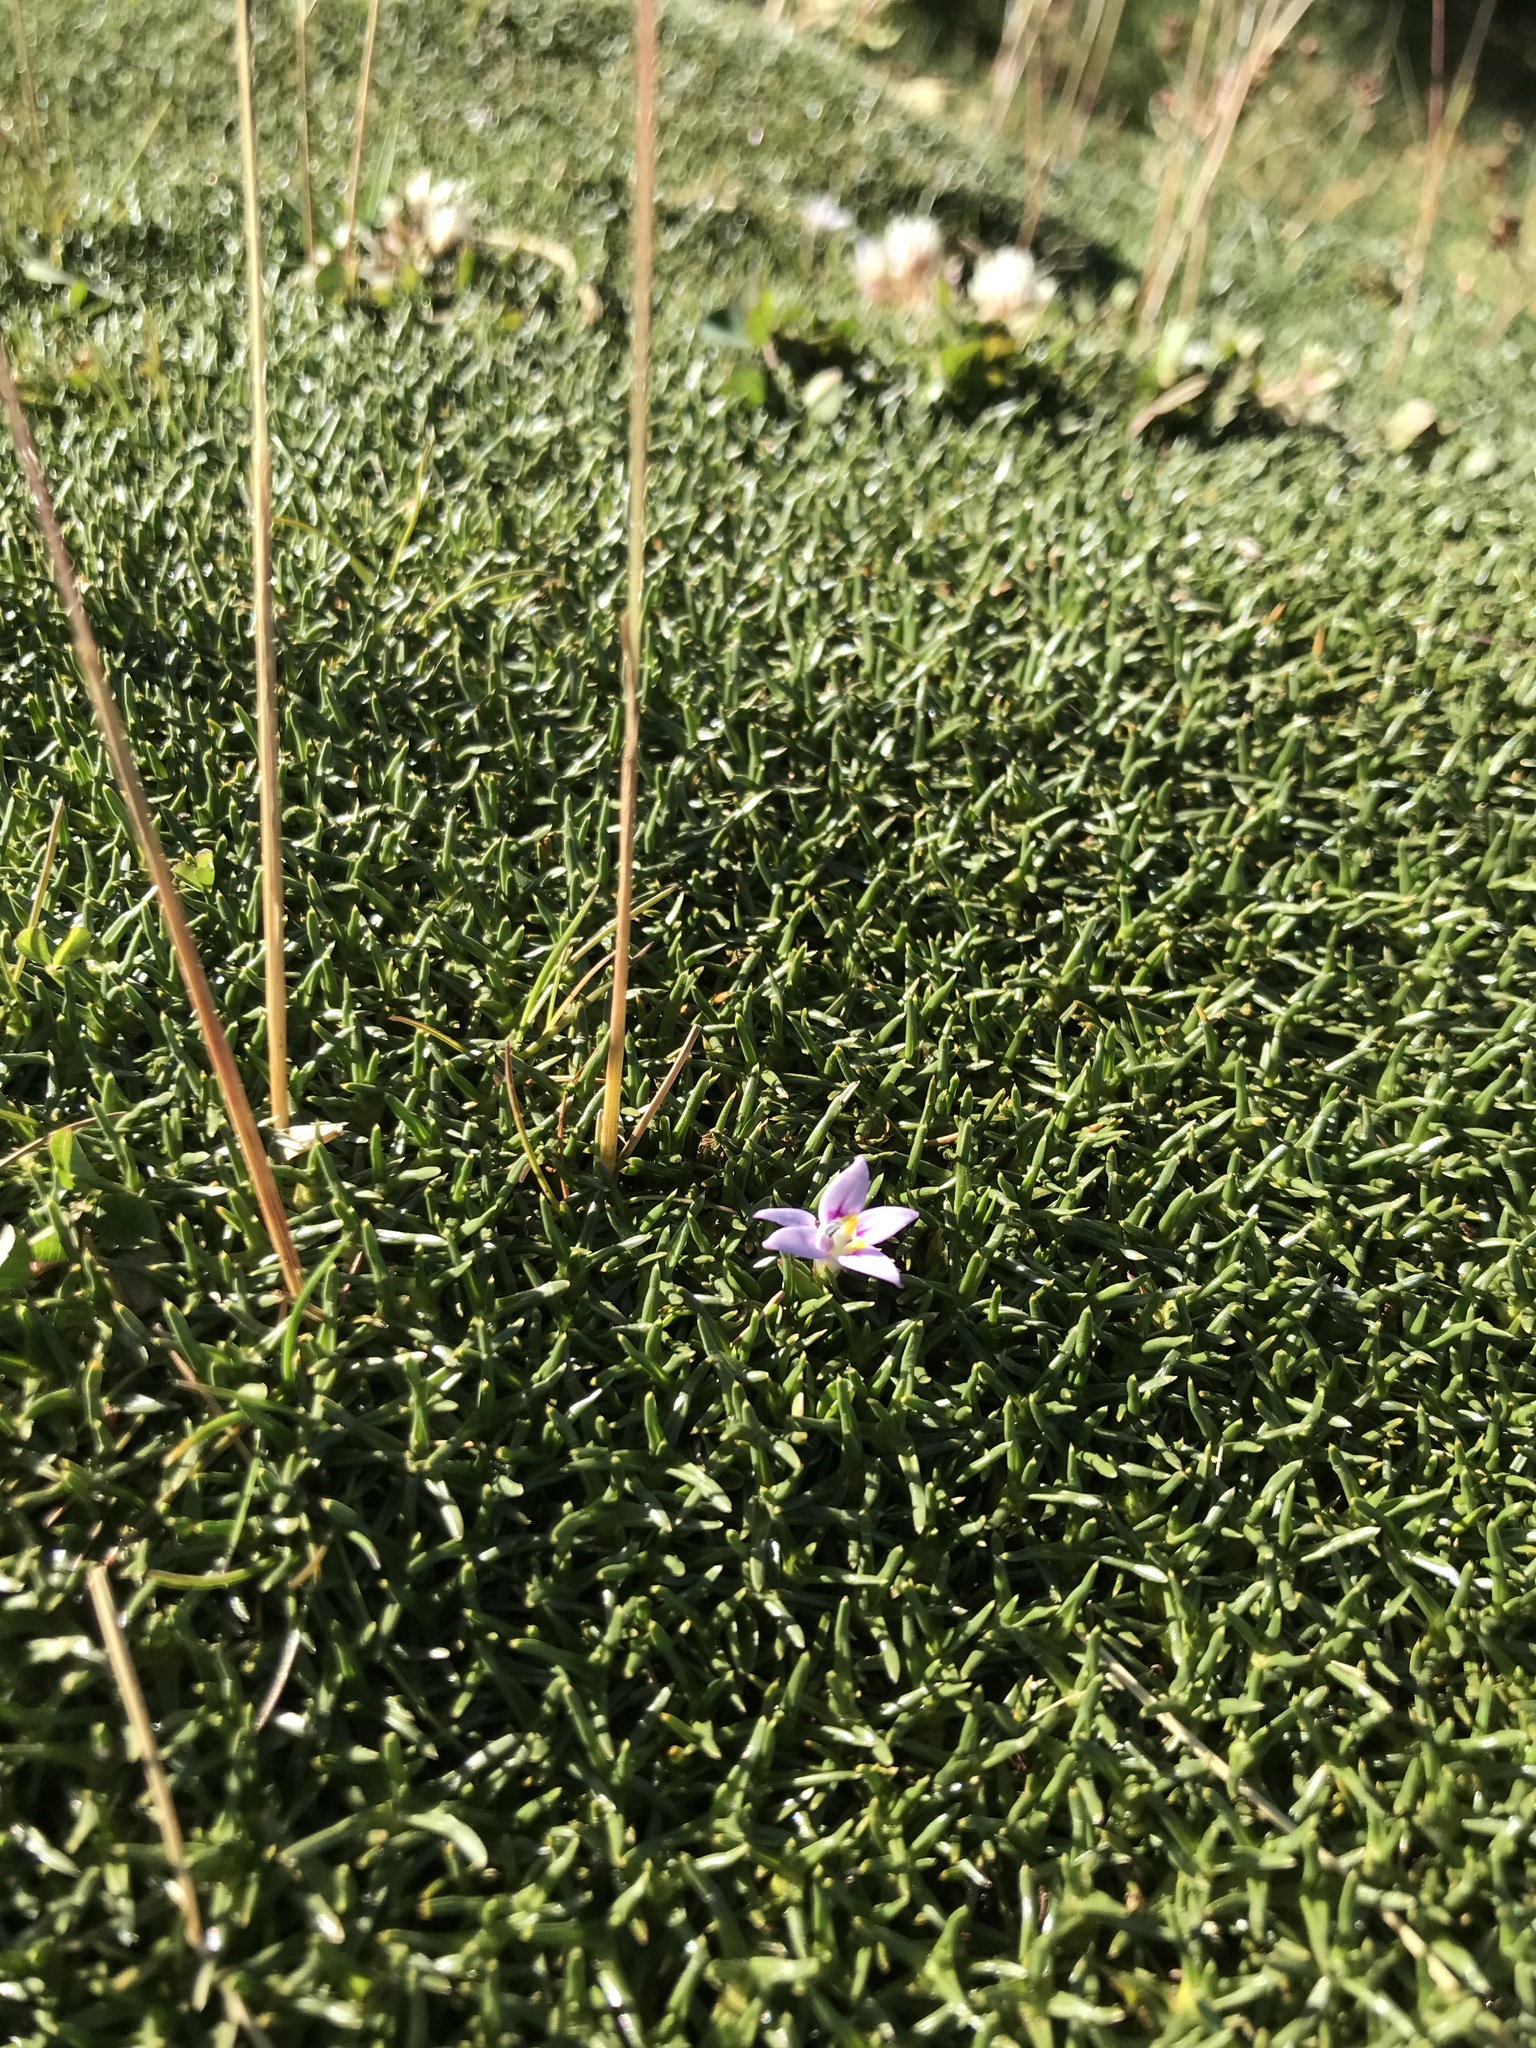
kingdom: Plantae
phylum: Tracheophyta
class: Magnoliopsida
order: Asterales
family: Campanulaceae
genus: Lobelia
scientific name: Lobelia oligophylla
